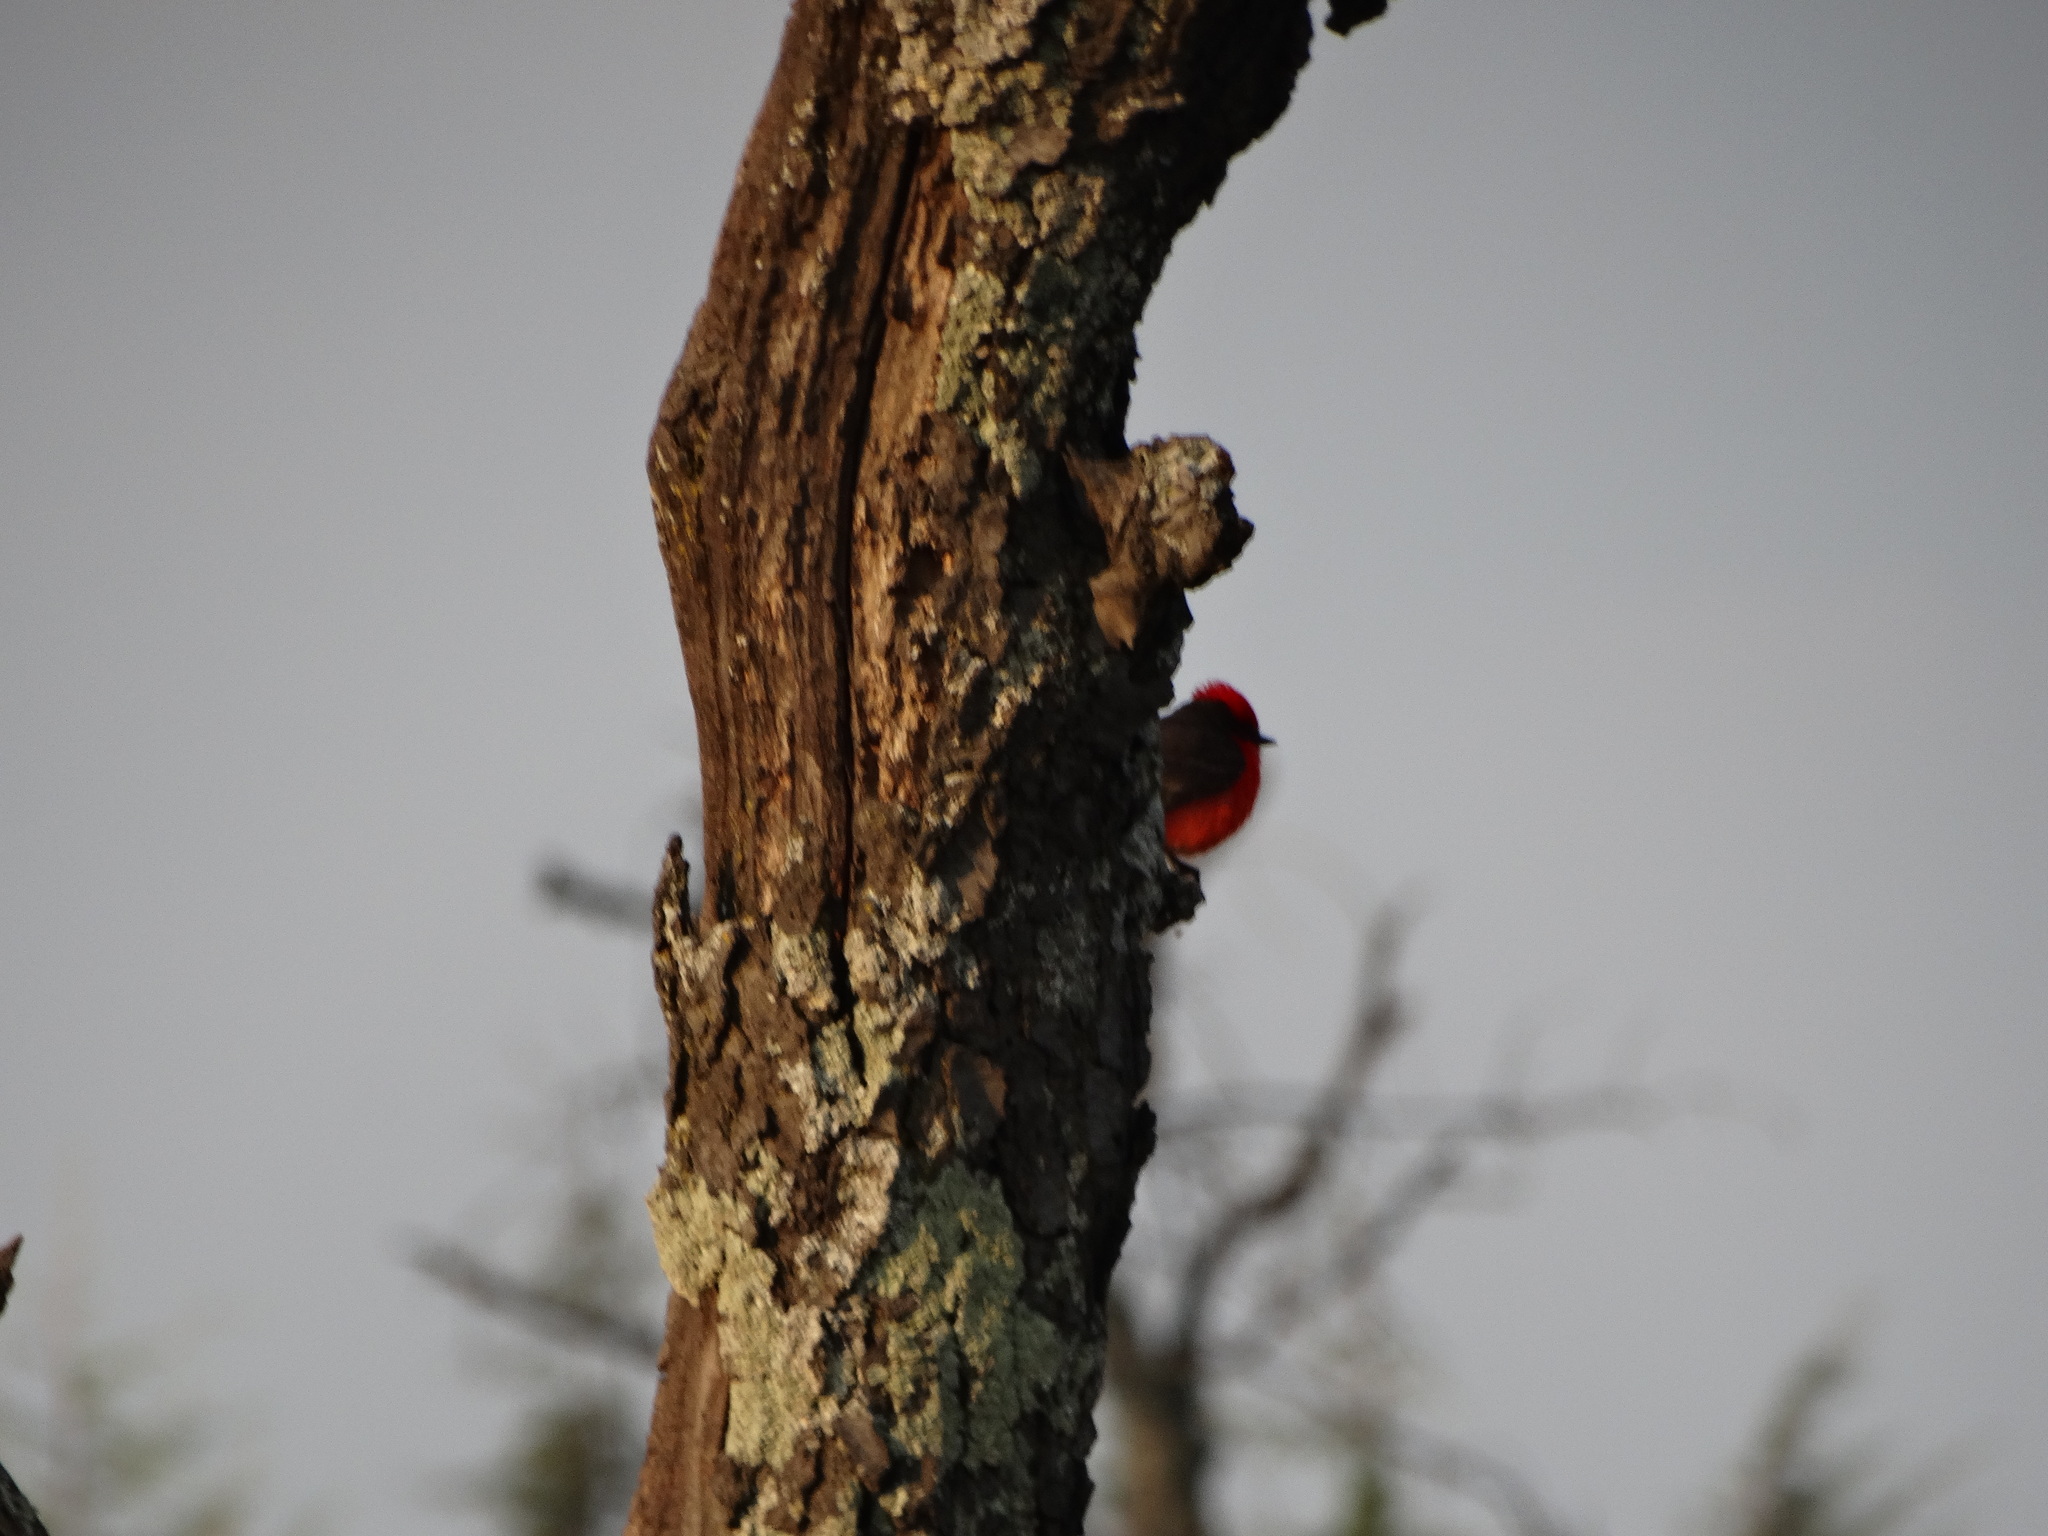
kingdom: Animalia
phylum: Chordata
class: Aves
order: Passeriformes
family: Tyrannidae
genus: Pyrocephalus
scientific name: Pyrocephalus rubinus
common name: Vermilion flycatcher
